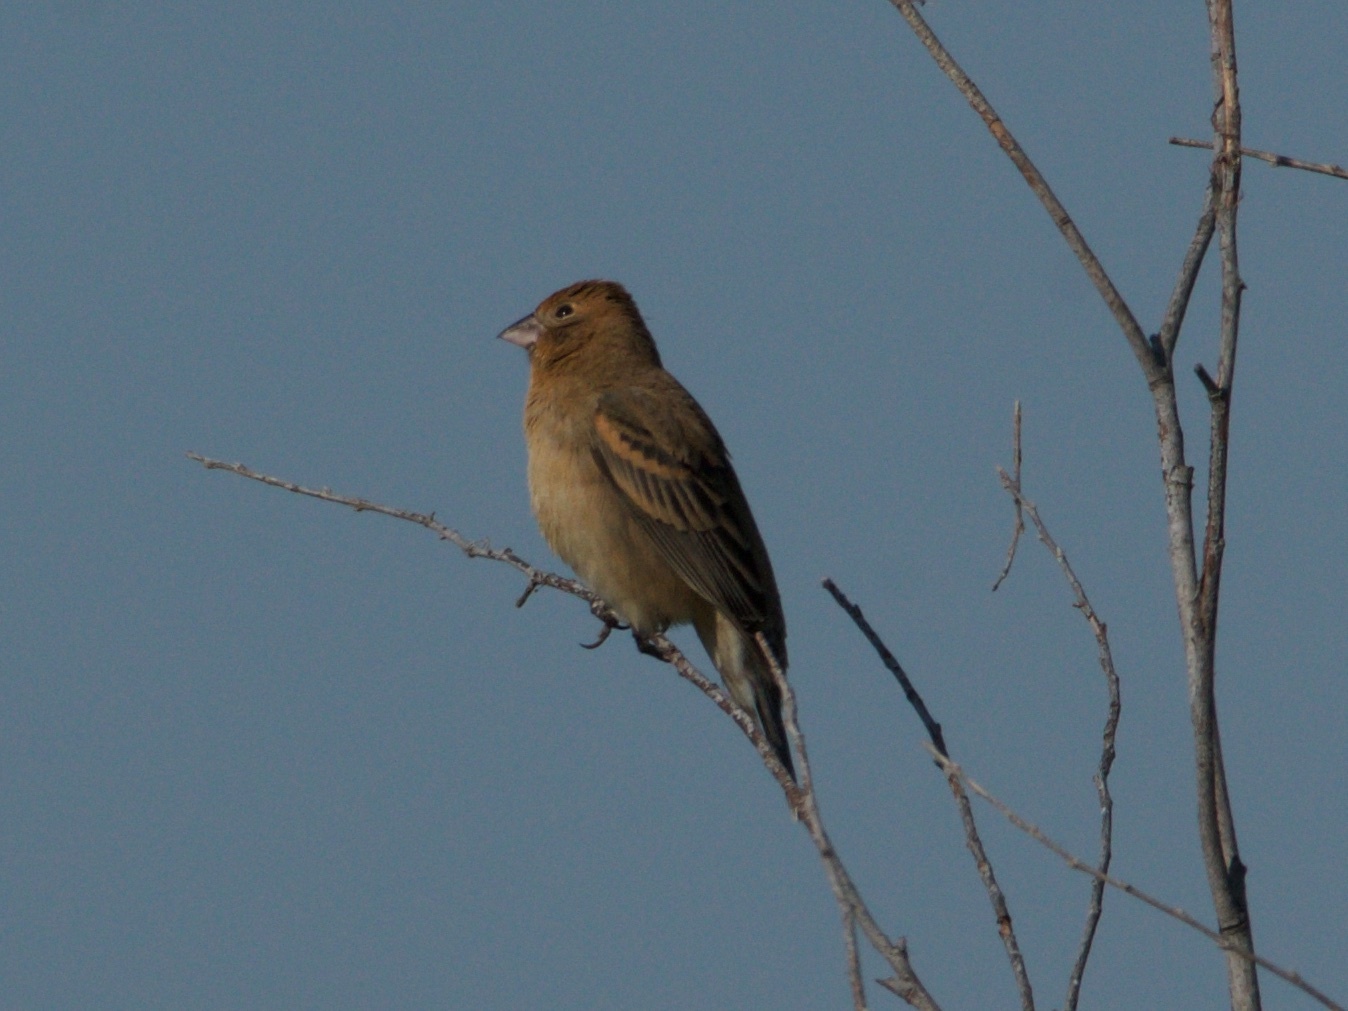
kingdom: Animalia
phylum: Chordata
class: Aves
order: Passeriformes
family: Cardinalidae
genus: Passerina
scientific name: Passerina caerulea
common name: Blue grosbeak
